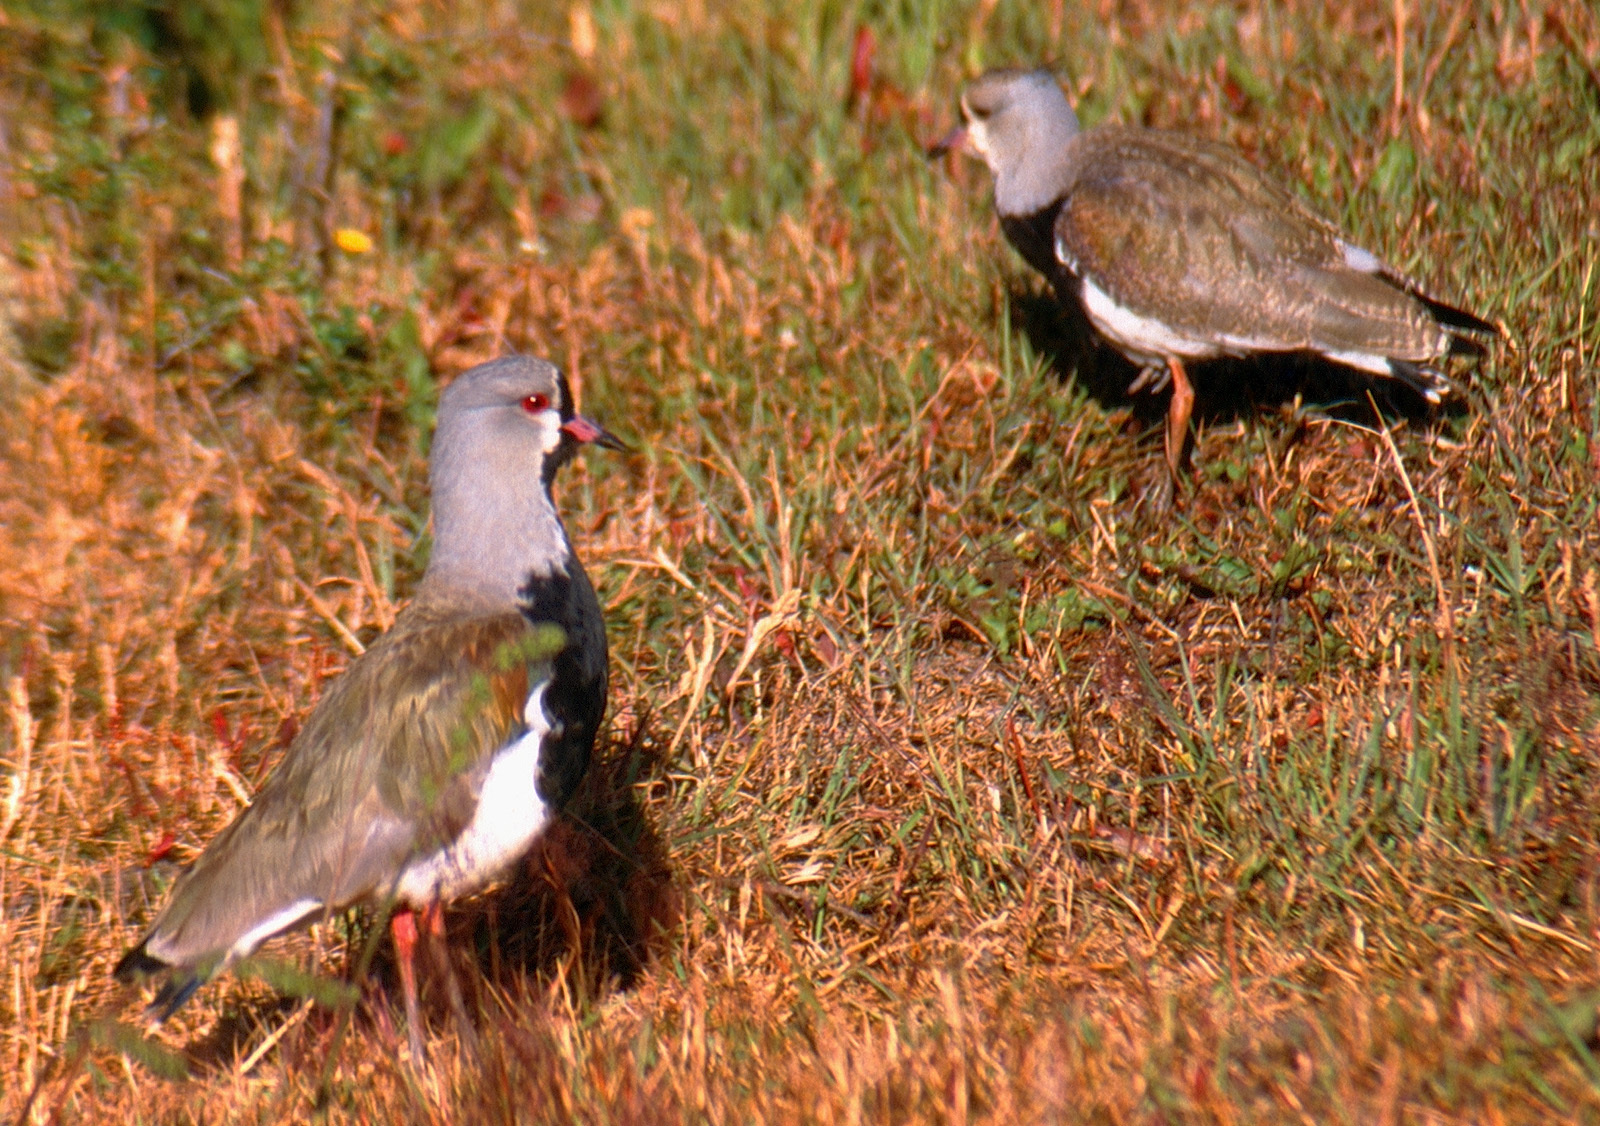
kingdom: Animalia
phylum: Chordata
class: Aves
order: Charadriiformes
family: Charadriidae
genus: Vanellus
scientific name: Vanellus chilensis
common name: Southern lapwing
